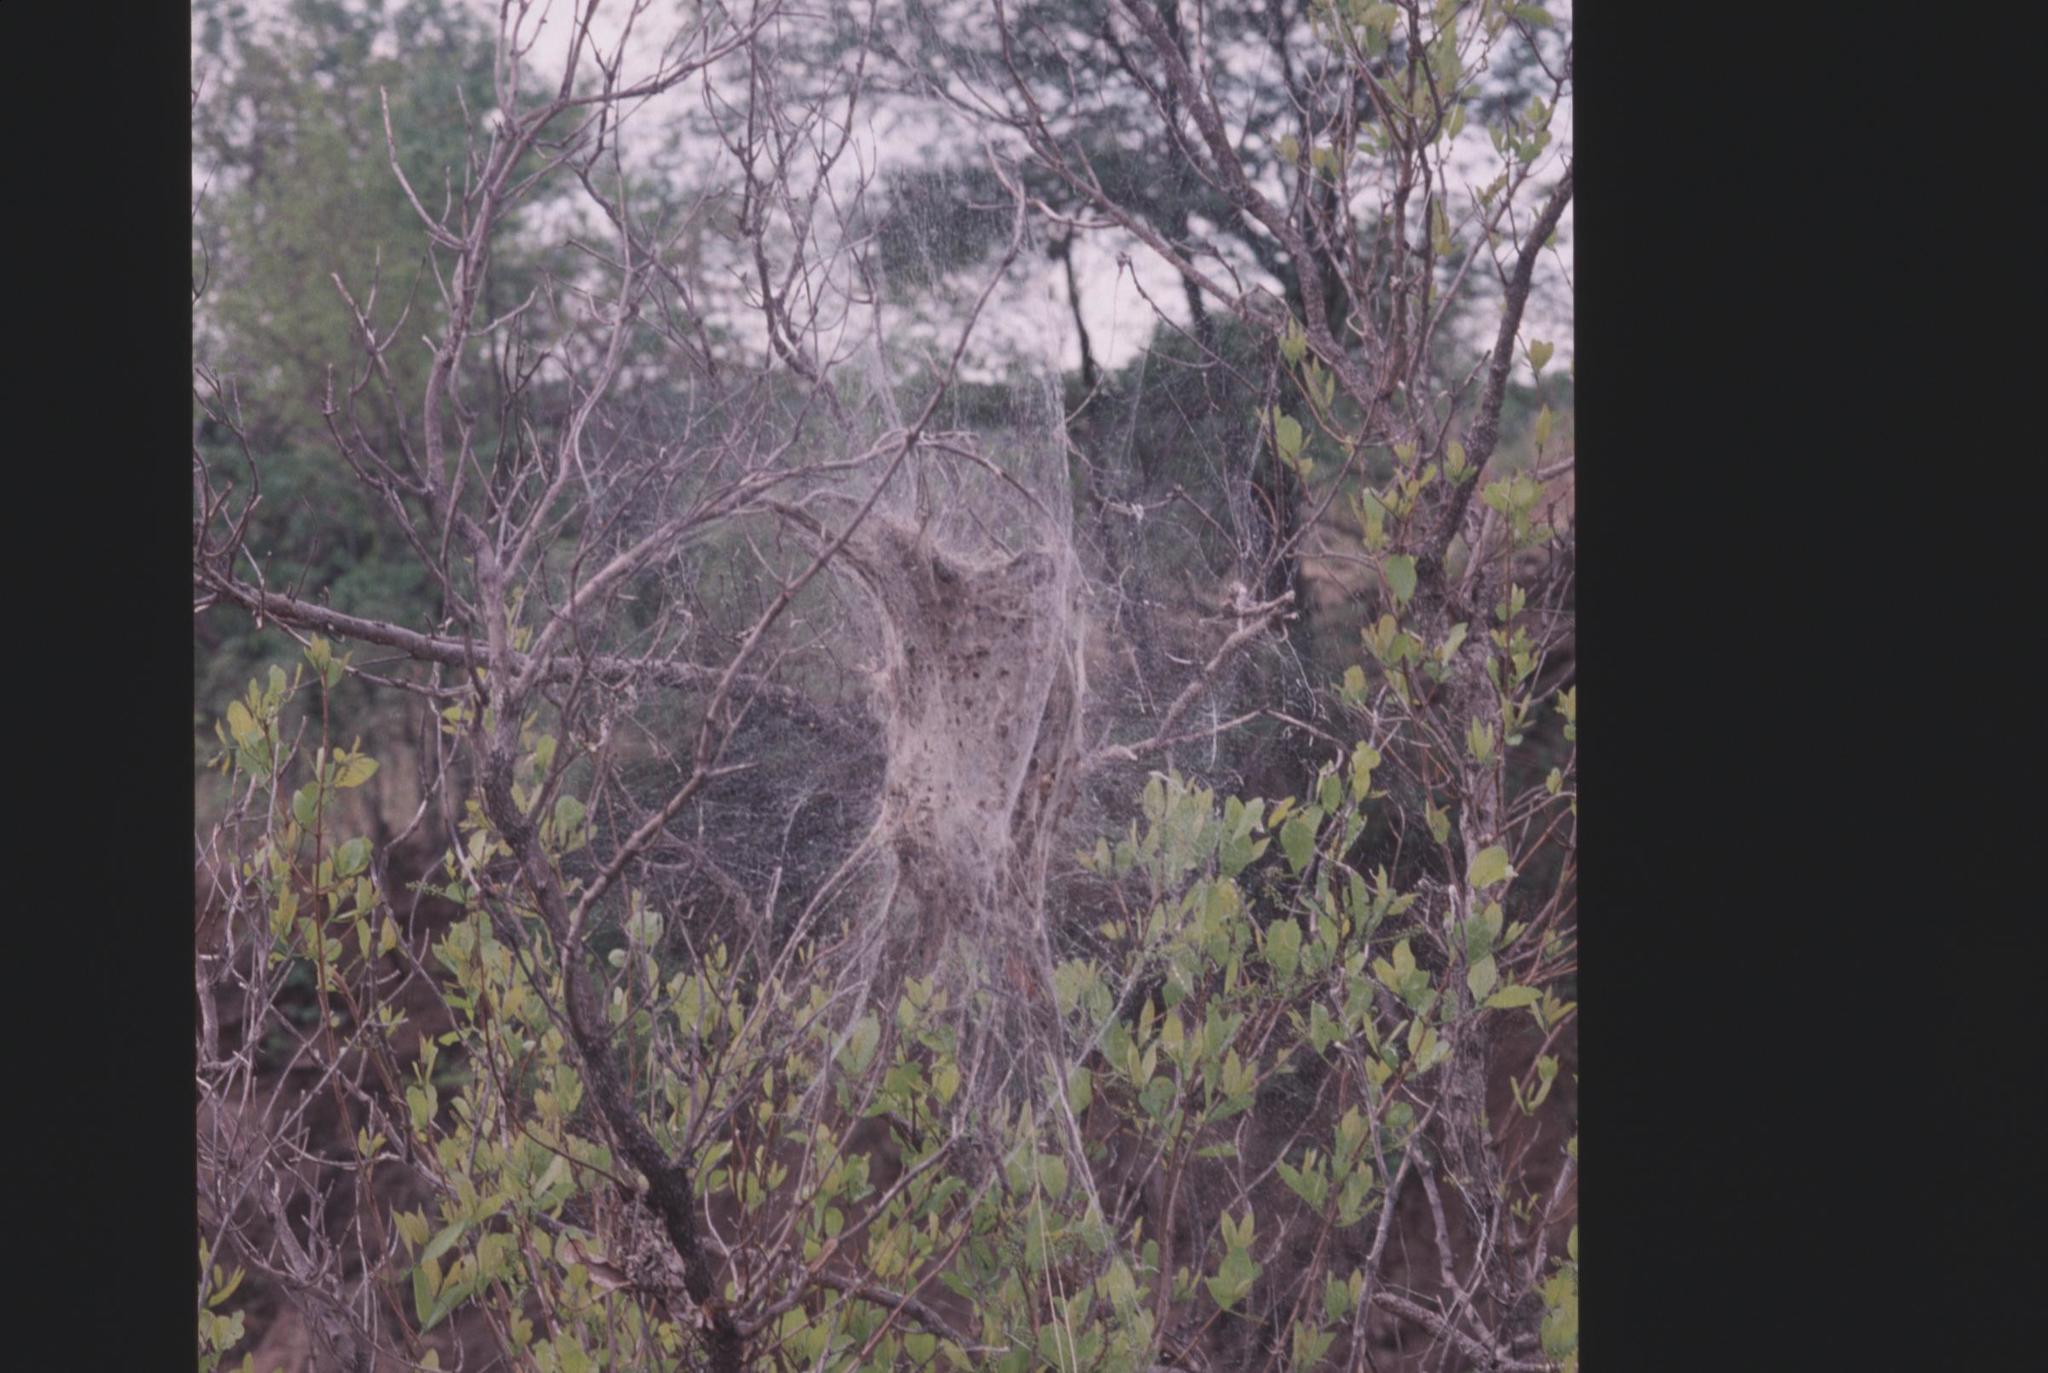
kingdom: Animalia
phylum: Arthropoda
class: Arachnida
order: Araneae
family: Eresidae
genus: Stegodyphus
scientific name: Stegodyphus dumicola
